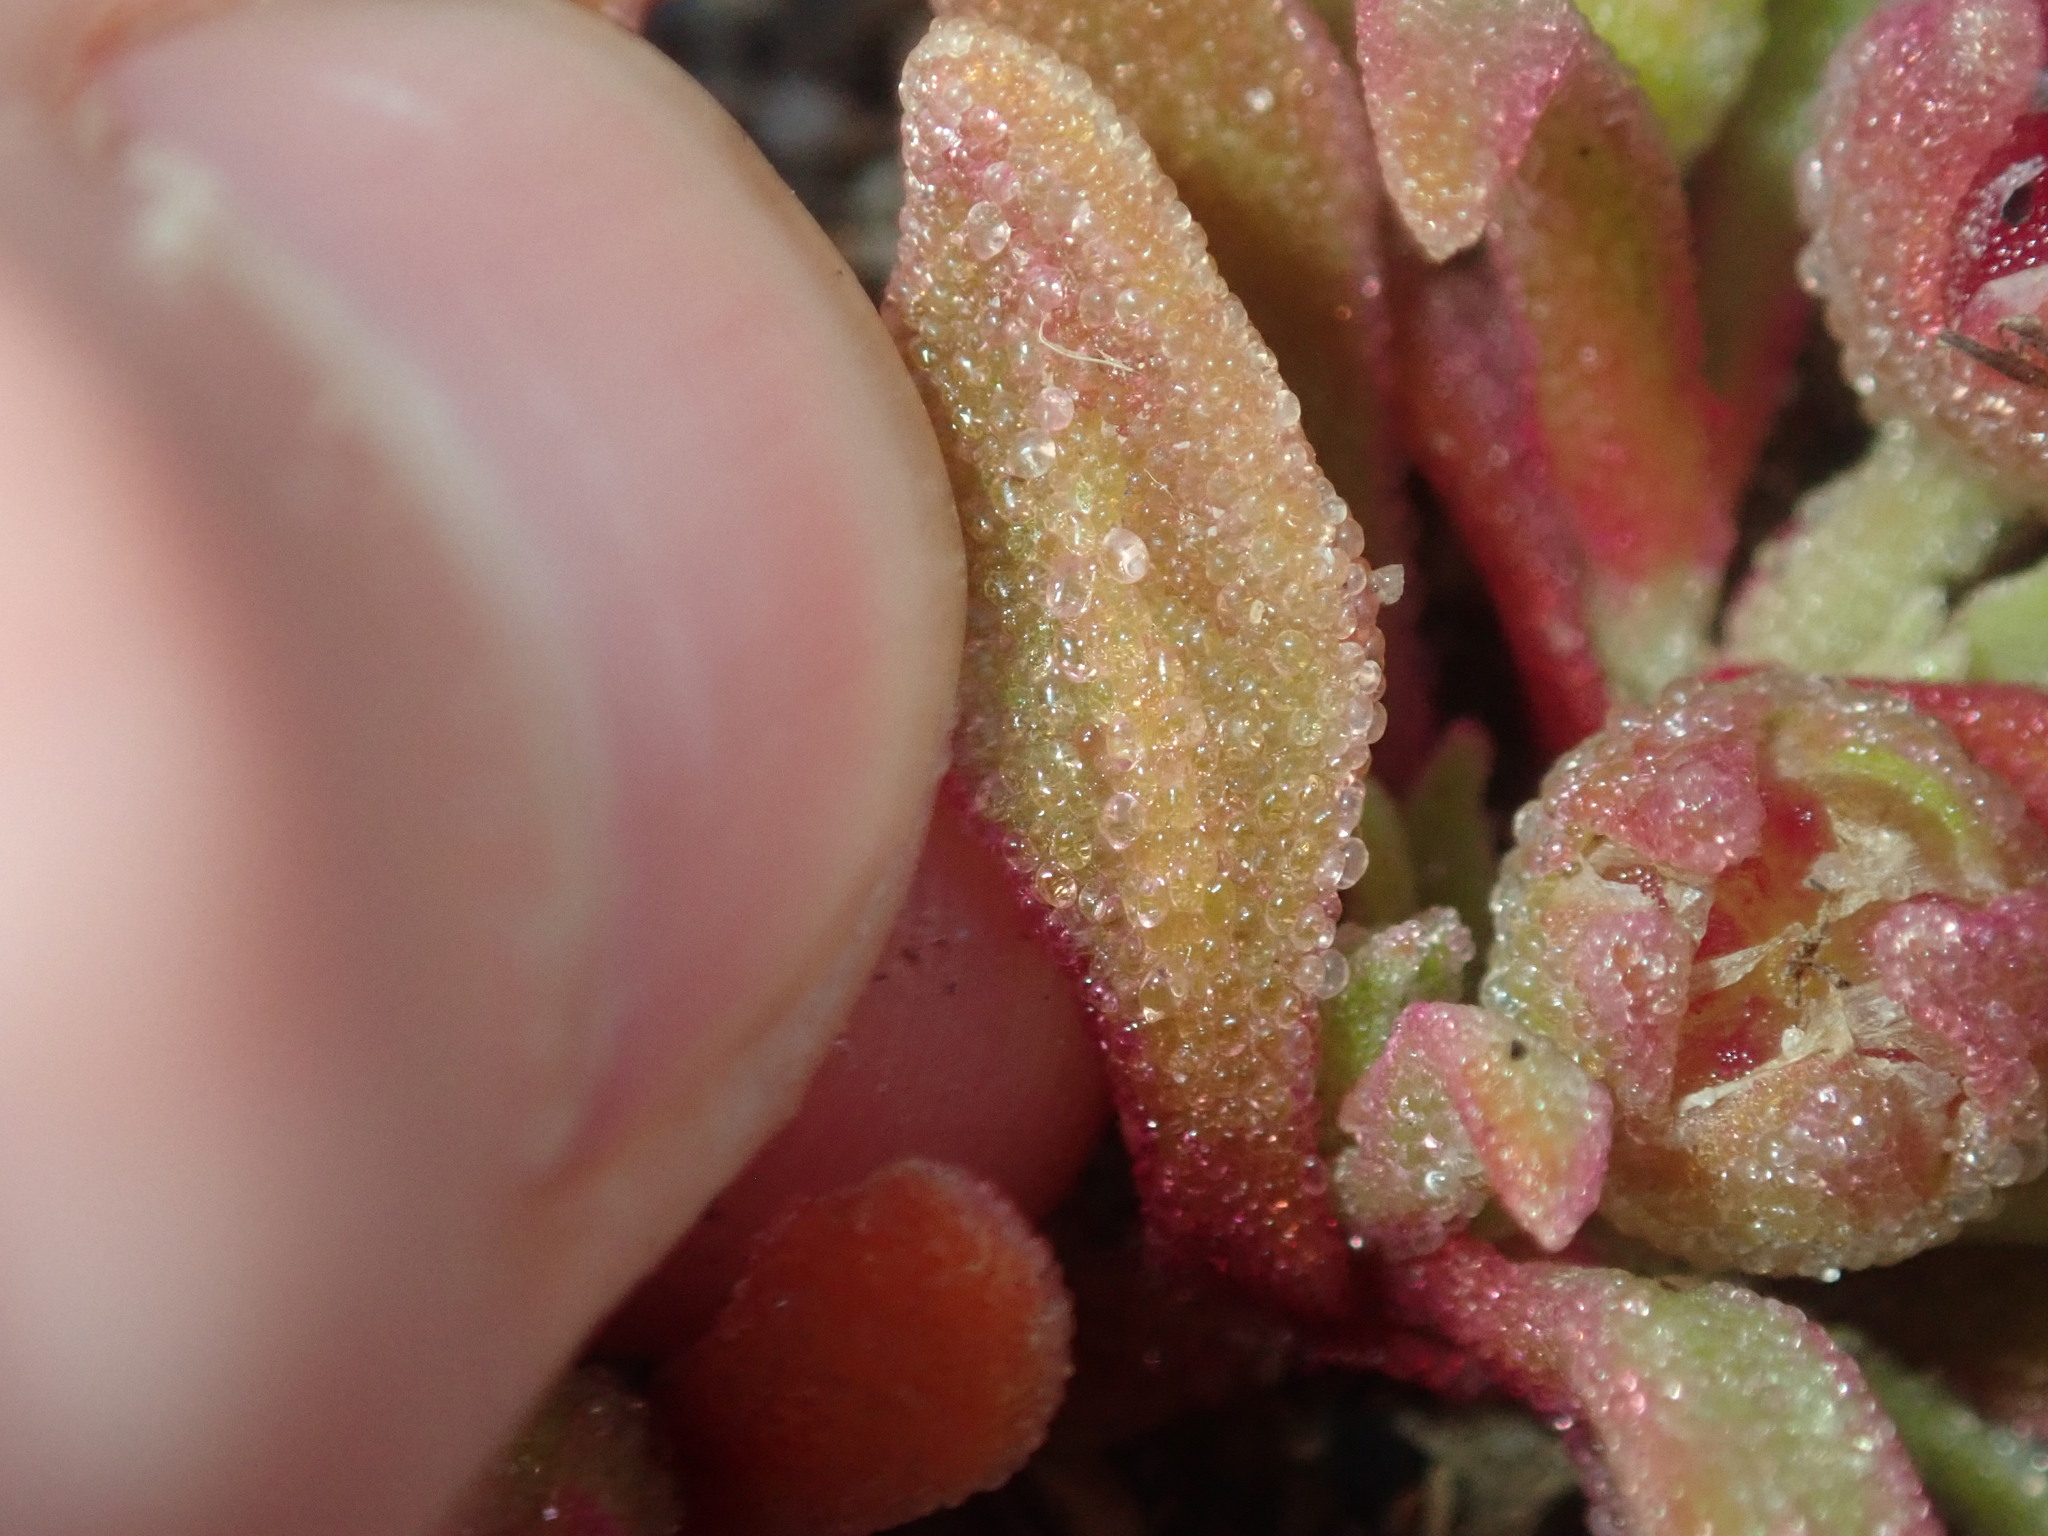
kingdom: Plantae
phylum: Tracheophyta
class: Magnoliopsida
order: Caryophyllales
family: Aizoaceae
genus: Cleretum
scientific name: Cleretum papulosum
